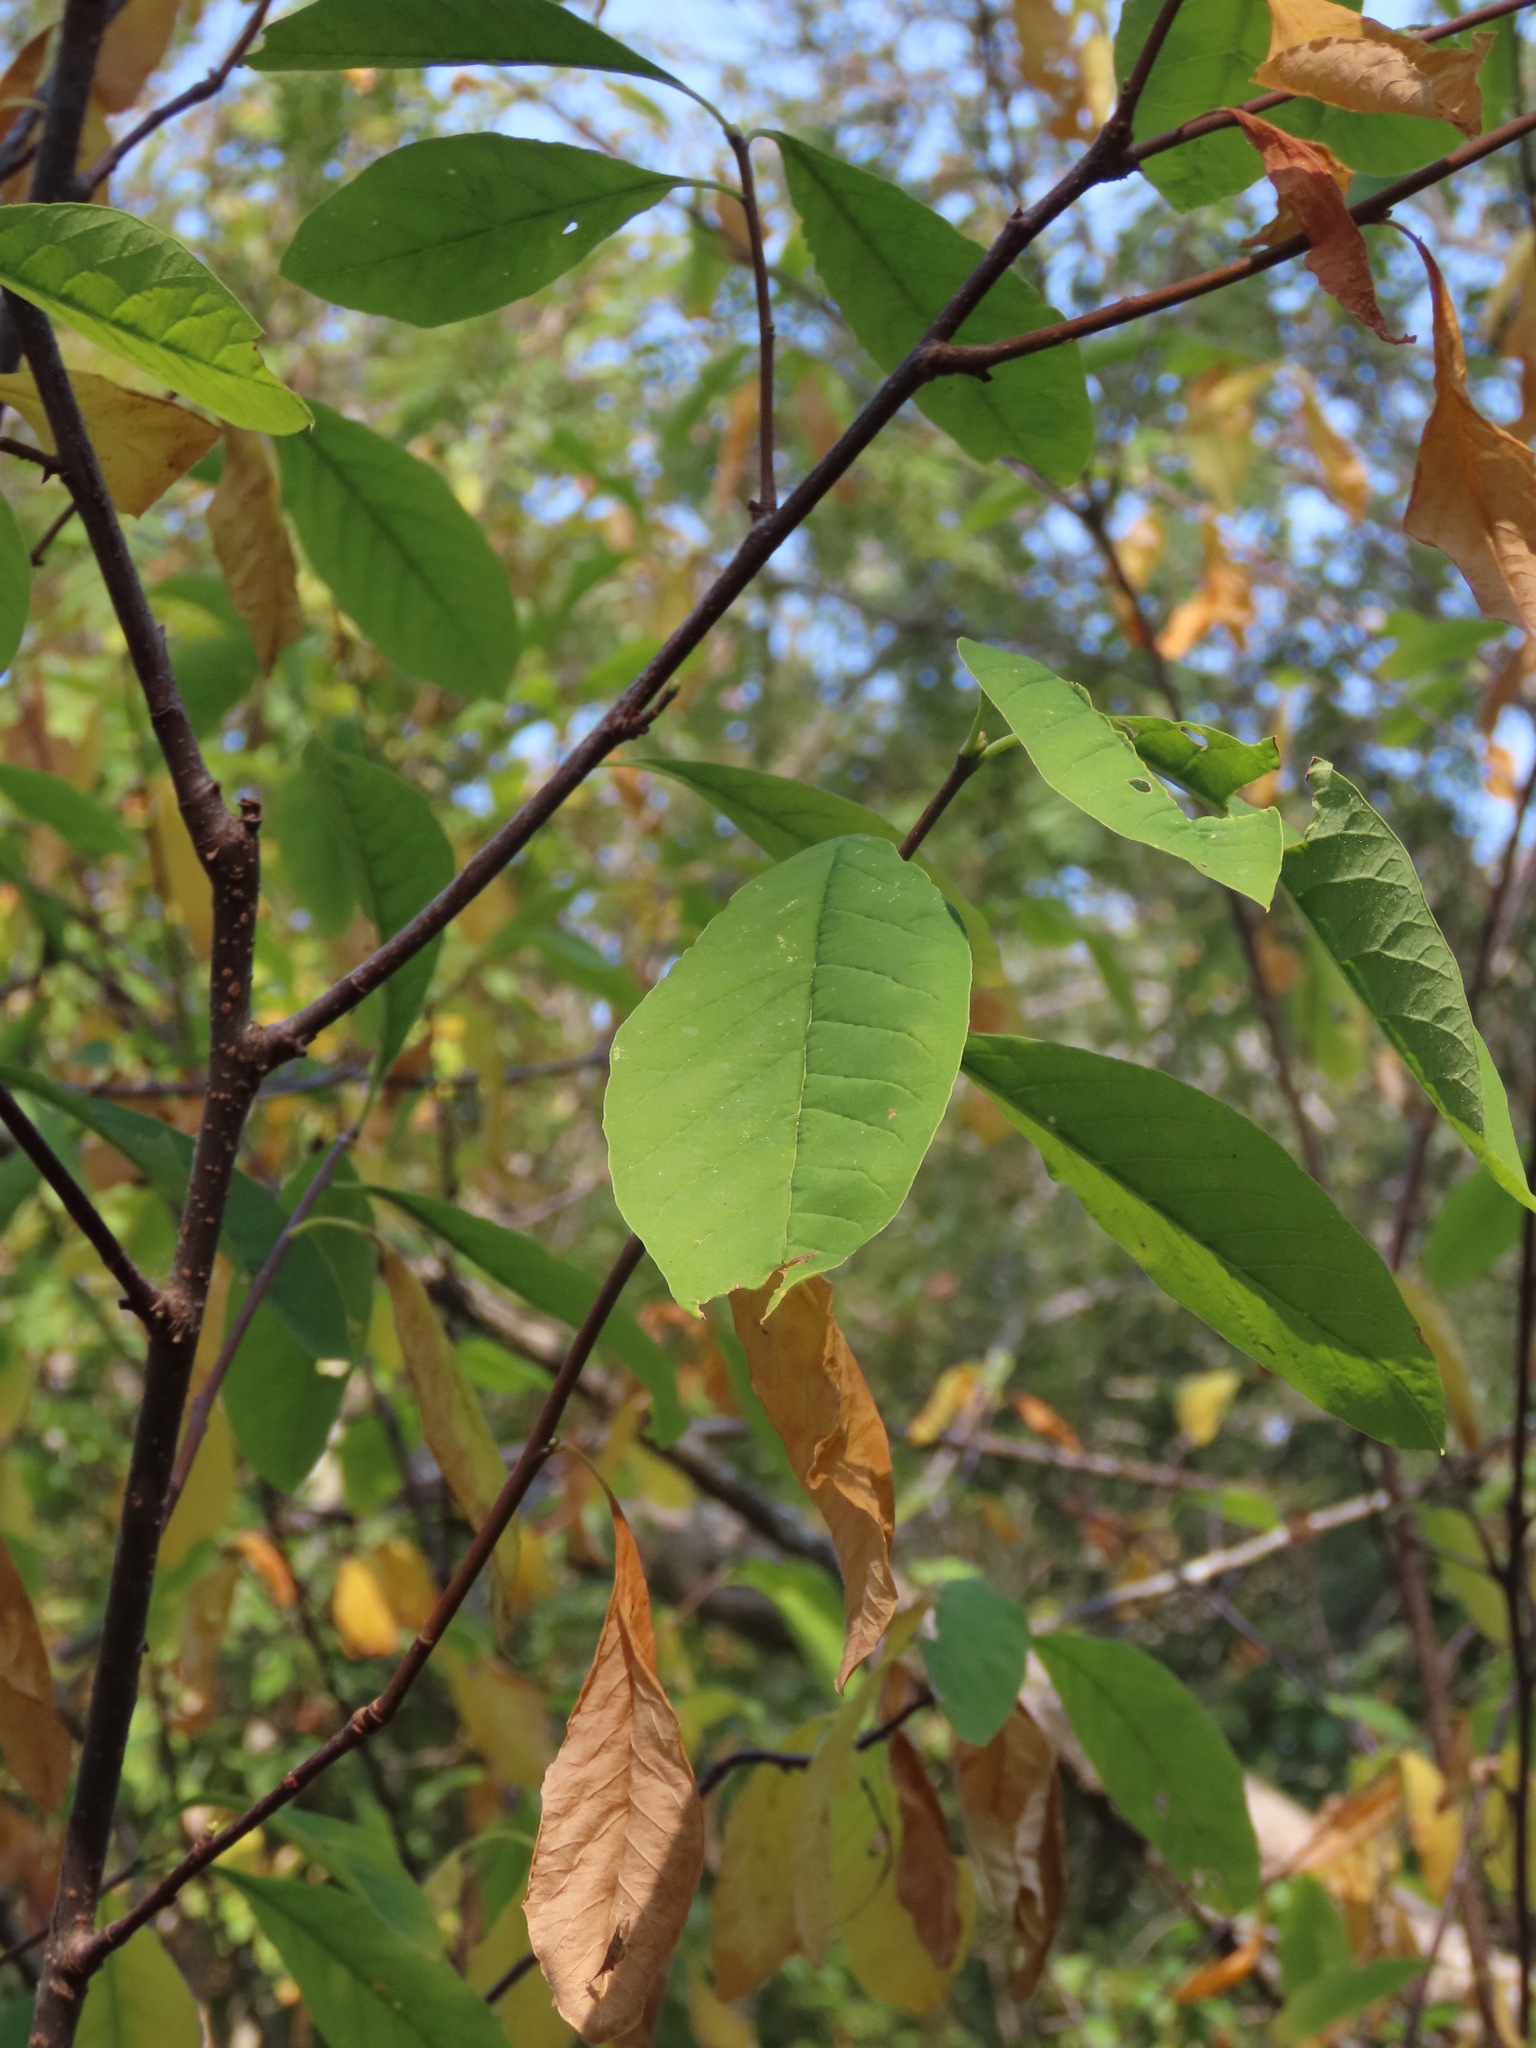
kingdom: Plantae
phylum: Tracheophyta
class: Magnoliopsida
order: Rosales
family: Rosaceae
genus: Oemleria
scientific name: Oemleria cerasiformis
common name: Osoberry
